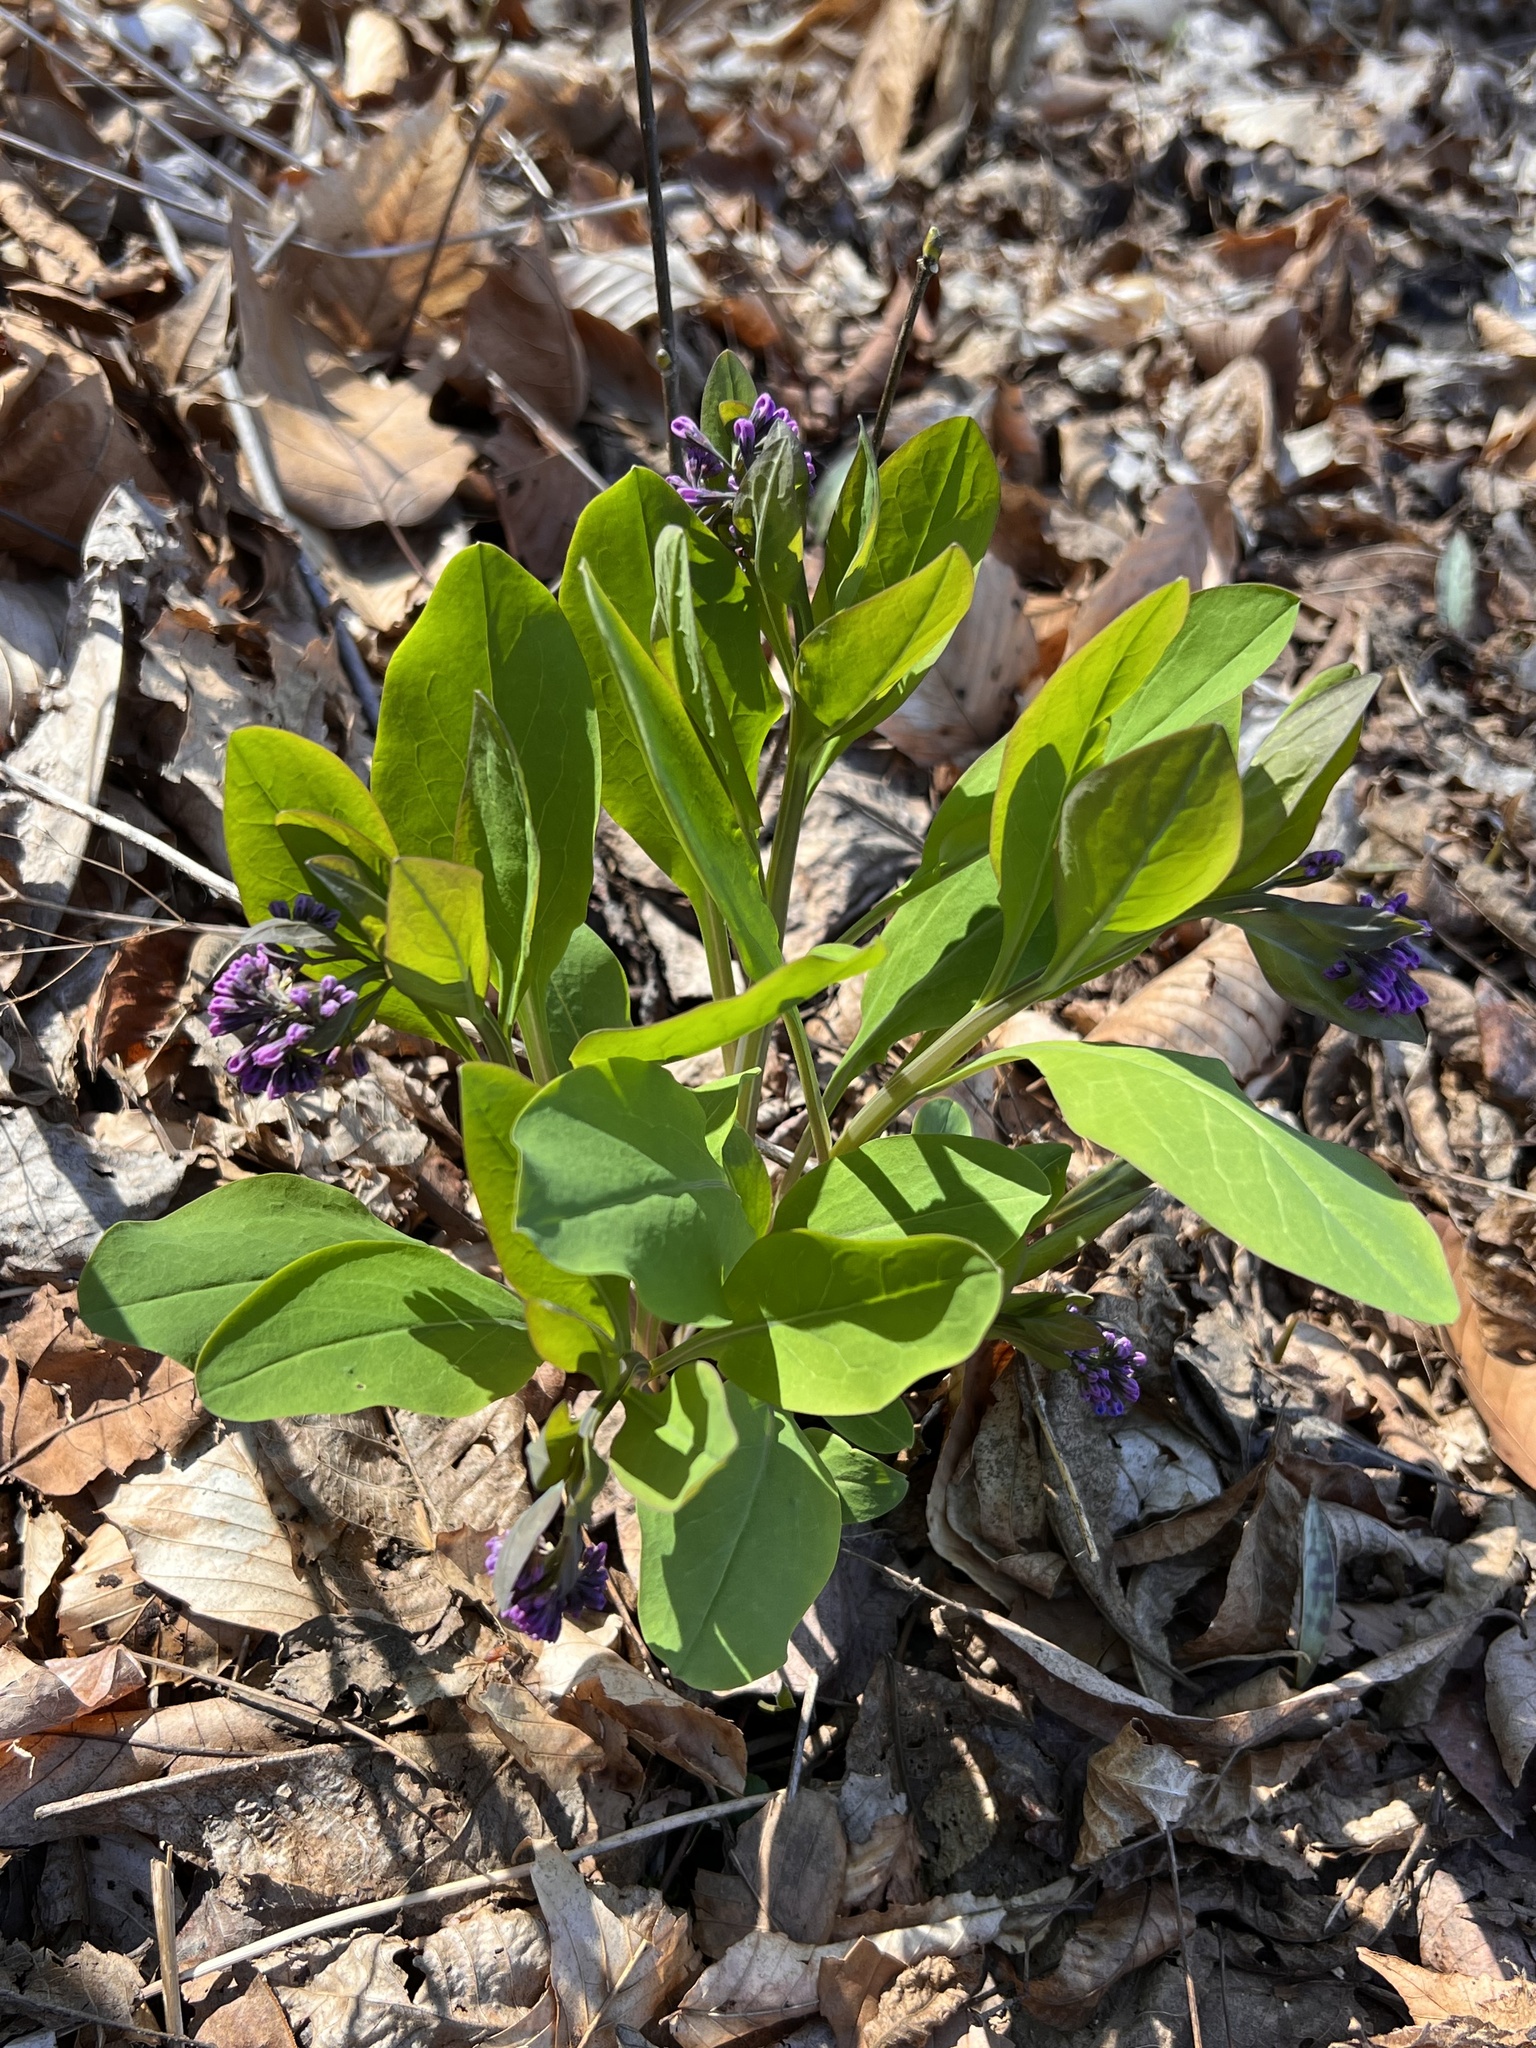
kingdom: Plantae
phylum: Tracheophyta
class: Magnoliopsida
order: Boraginales
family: Boraginaceae
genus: Mertensia
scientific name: Mertensia virginica
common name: Virginia bluebells
